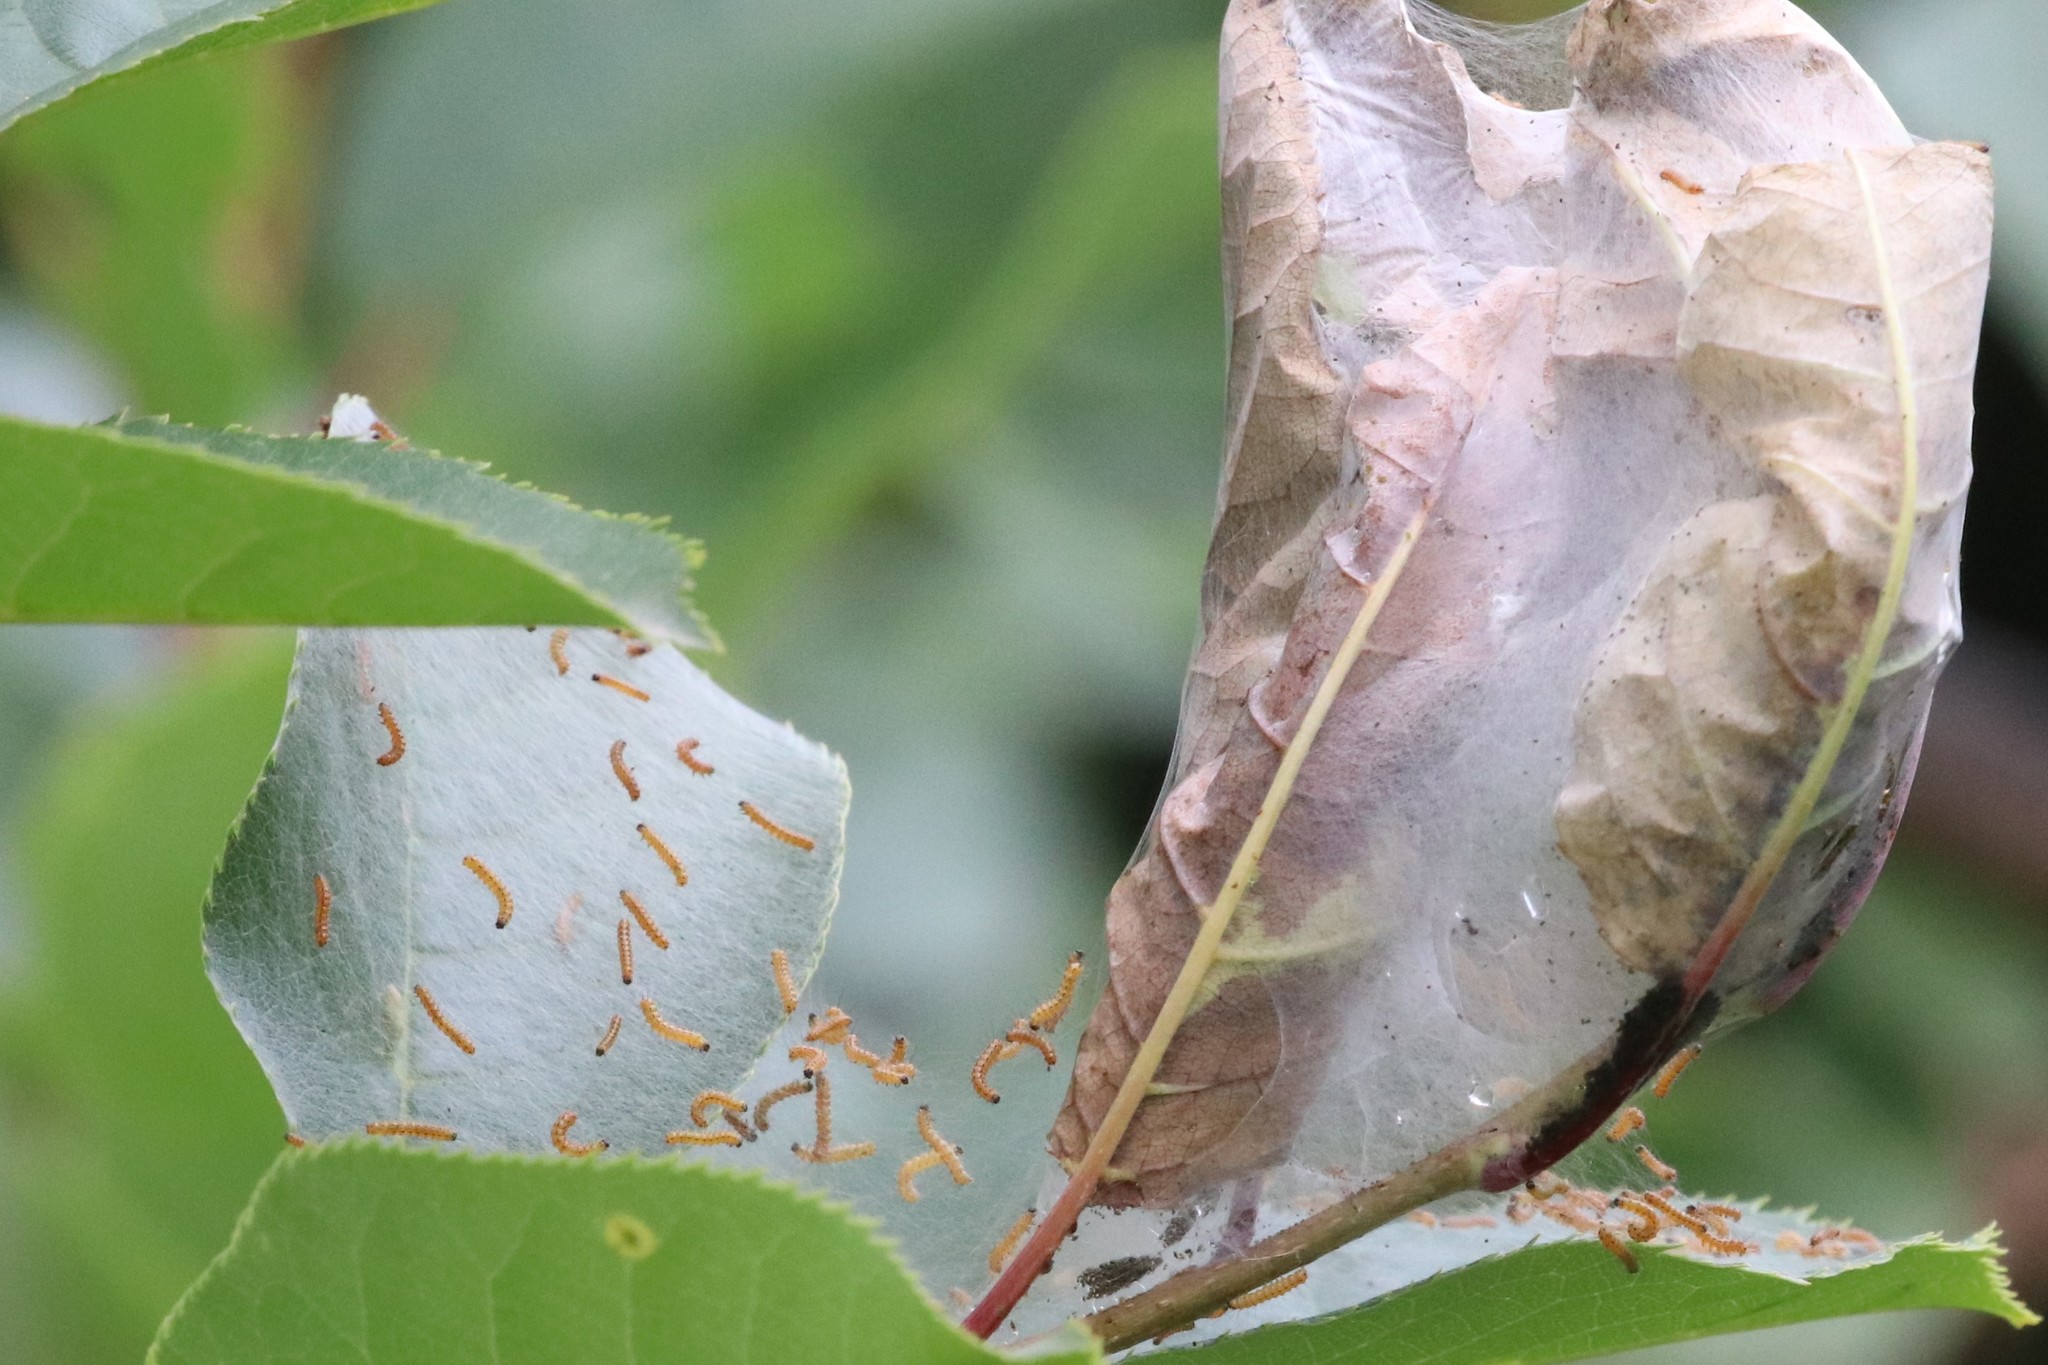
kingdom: Animalia
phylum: Arthropoda
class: Insecta
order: Lepidoptera
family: Erebidae
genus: Hyphantria
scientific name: Hyphantria cunea
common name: American white moth
